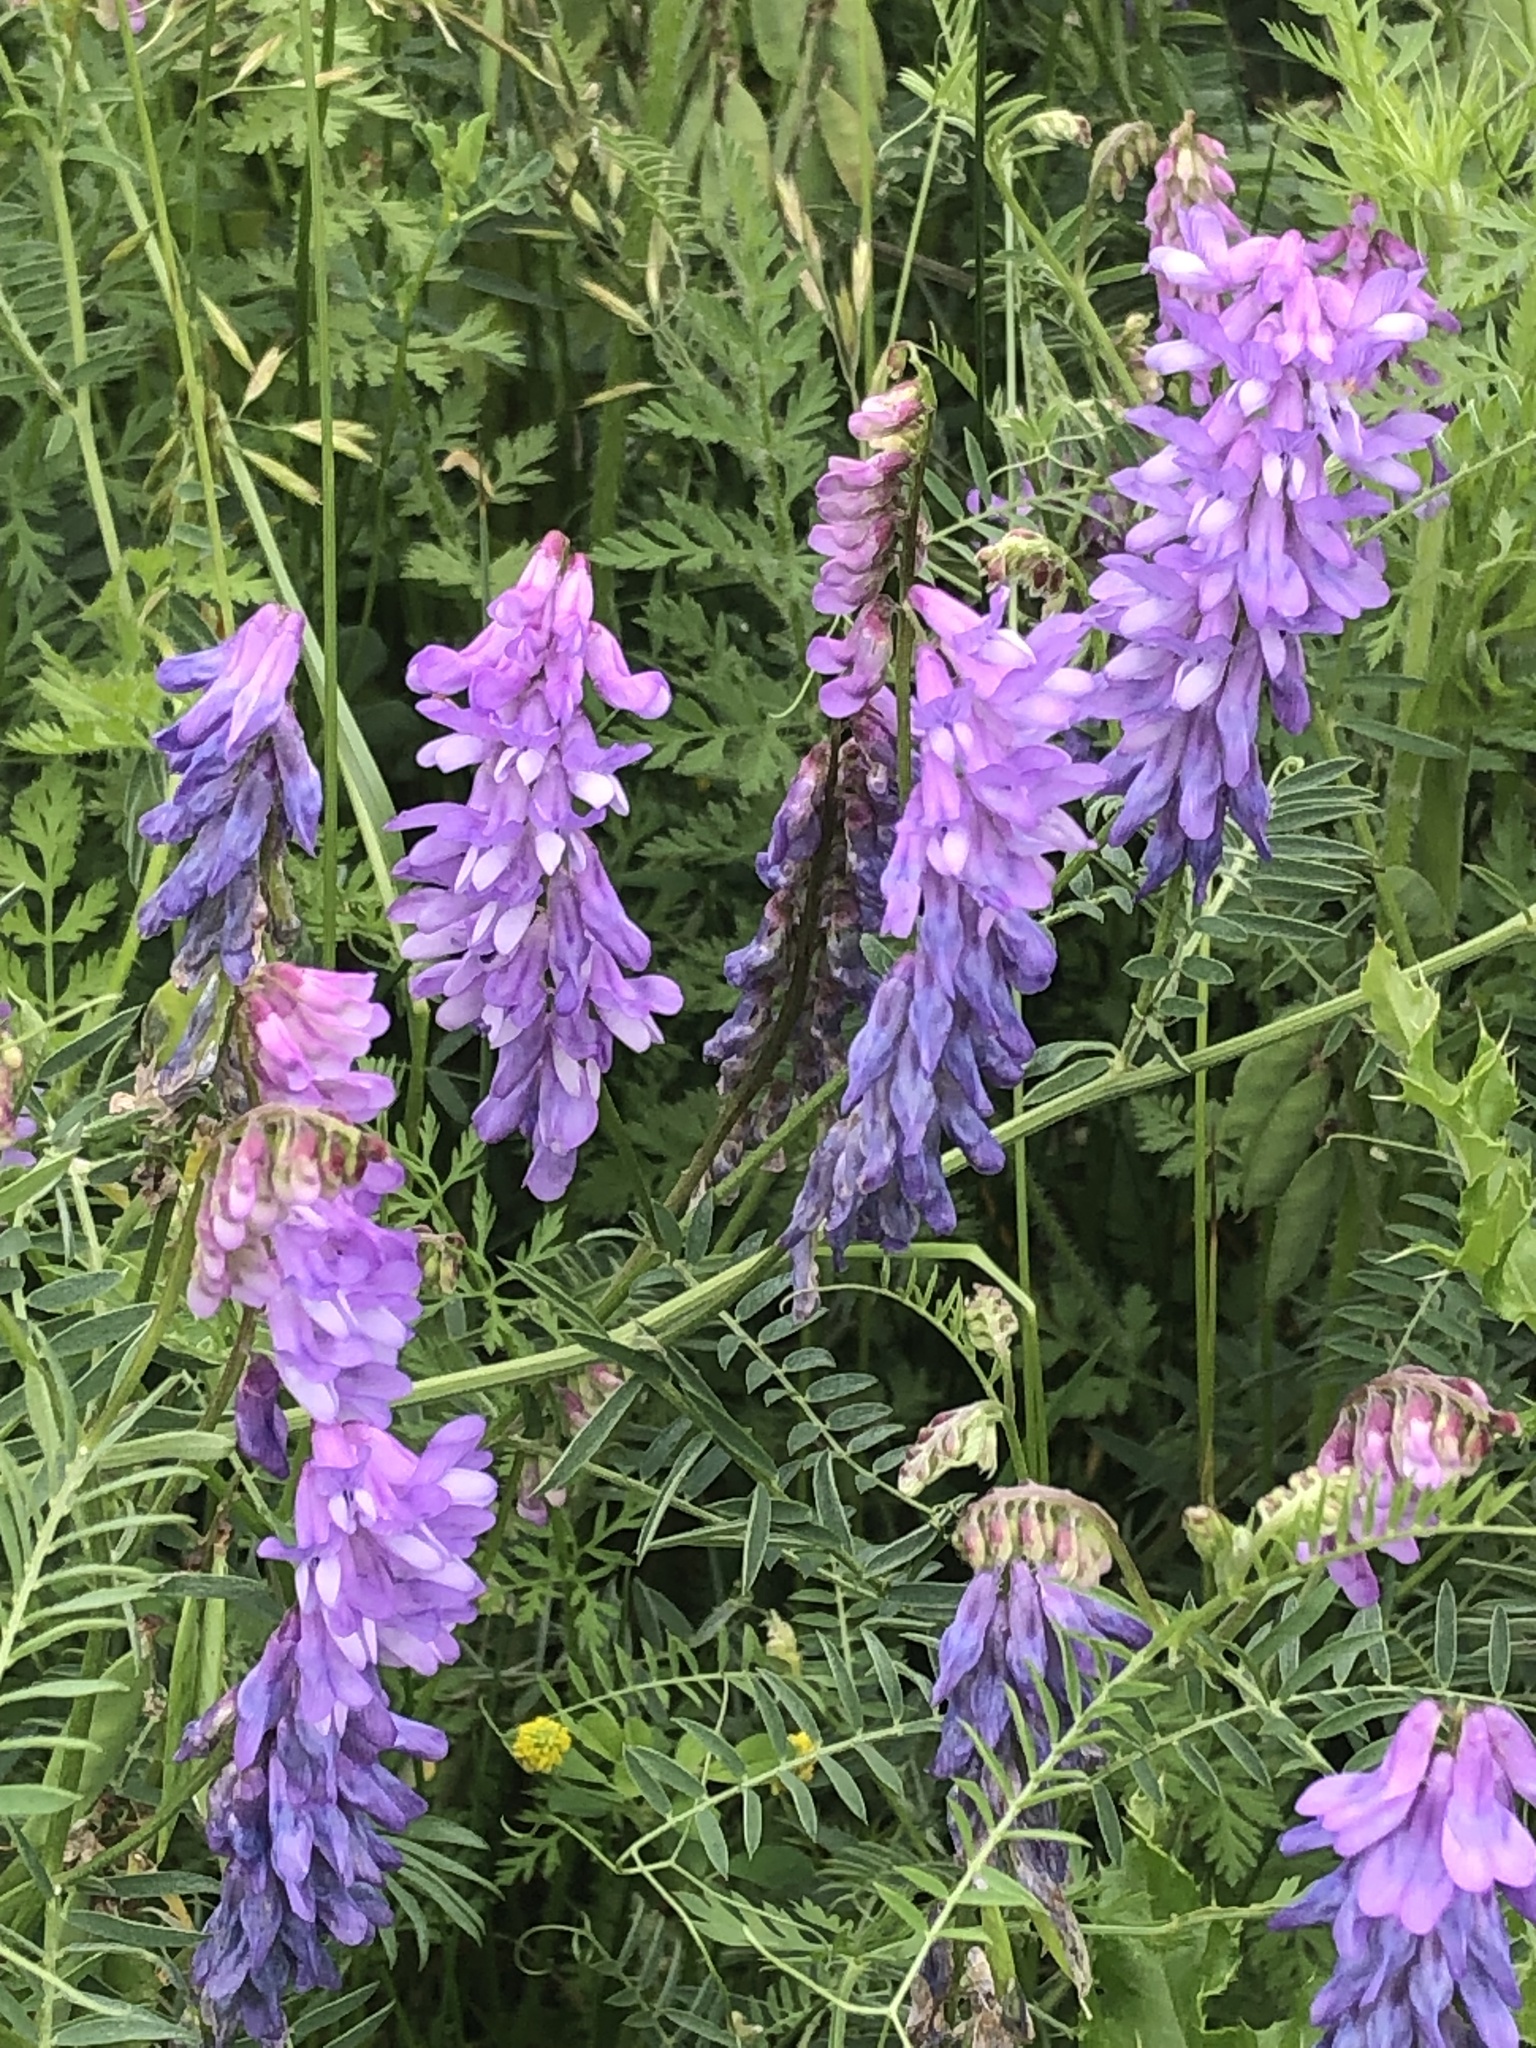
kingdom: Plantae
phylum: Tracheophyta
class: Magnoliopsida
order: Fabales
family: Fabaceae
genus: Vicia
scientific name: Vicia cracca
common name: Bird vetch
